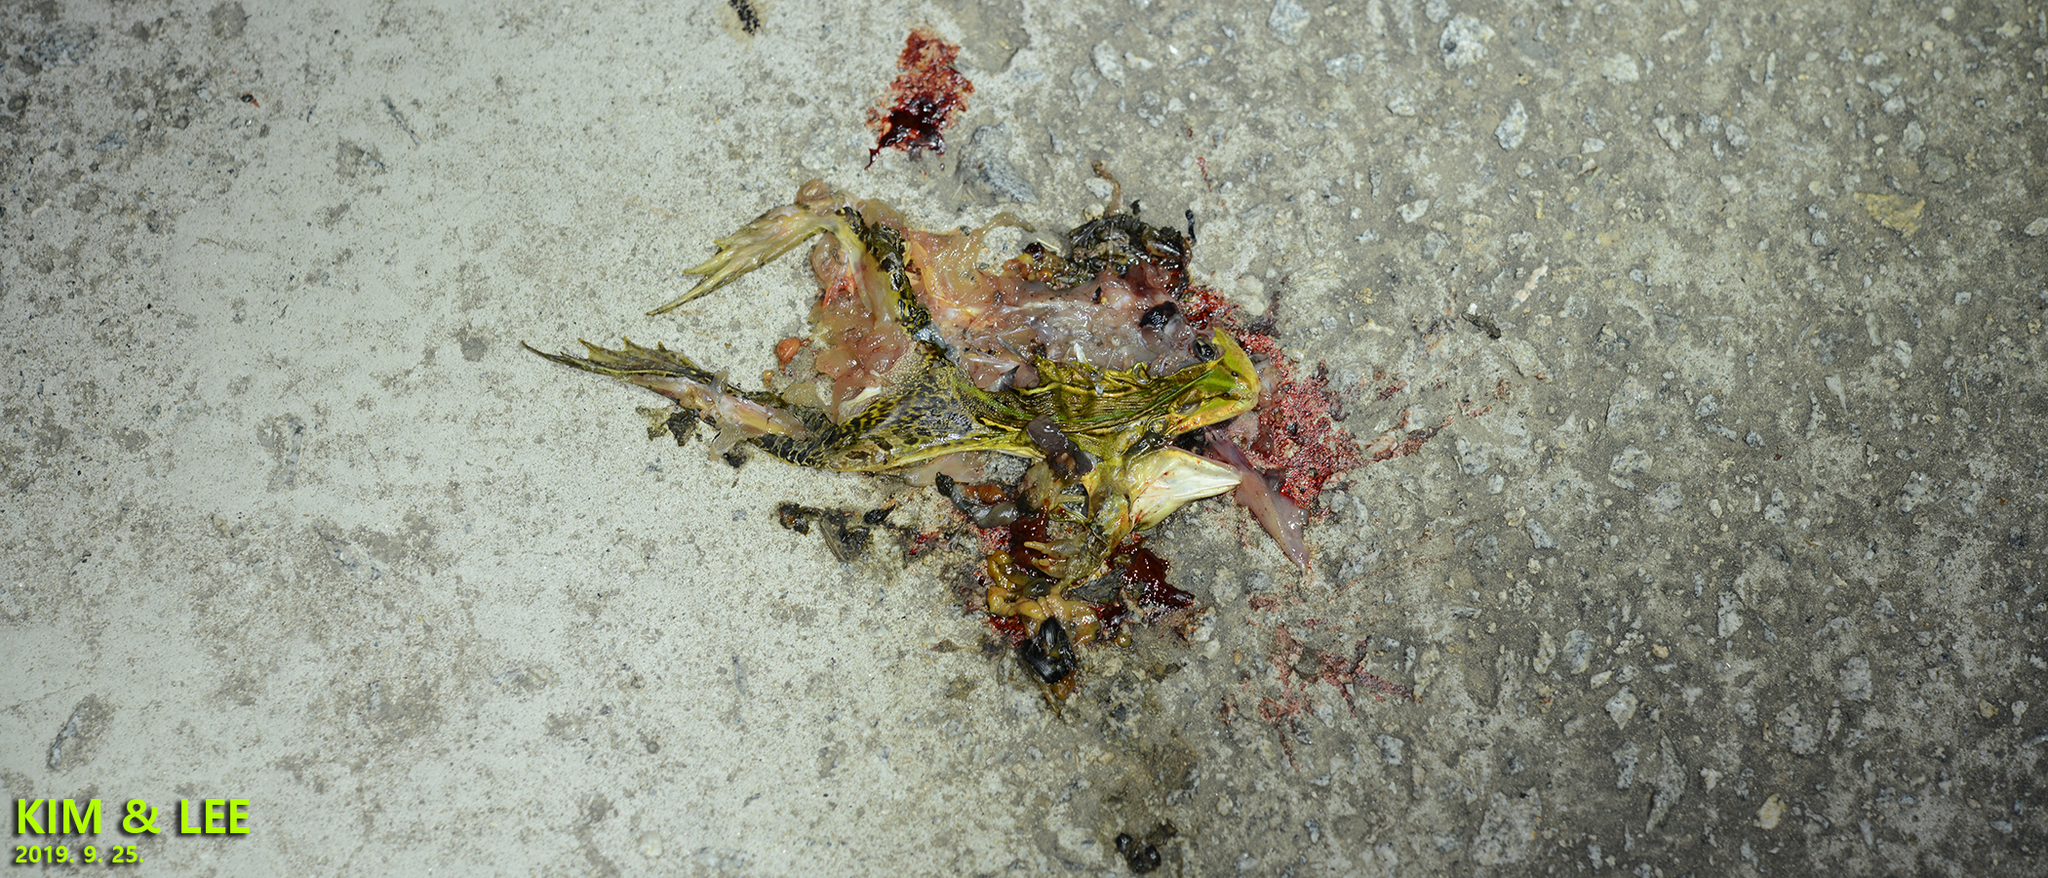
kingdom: Animalia
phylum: Chordata
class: Amphibia
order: Anura
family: Ranidae
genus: Pelophylax
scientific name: Pelophylax nigromaculatus
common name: Black-spotted pond frog
